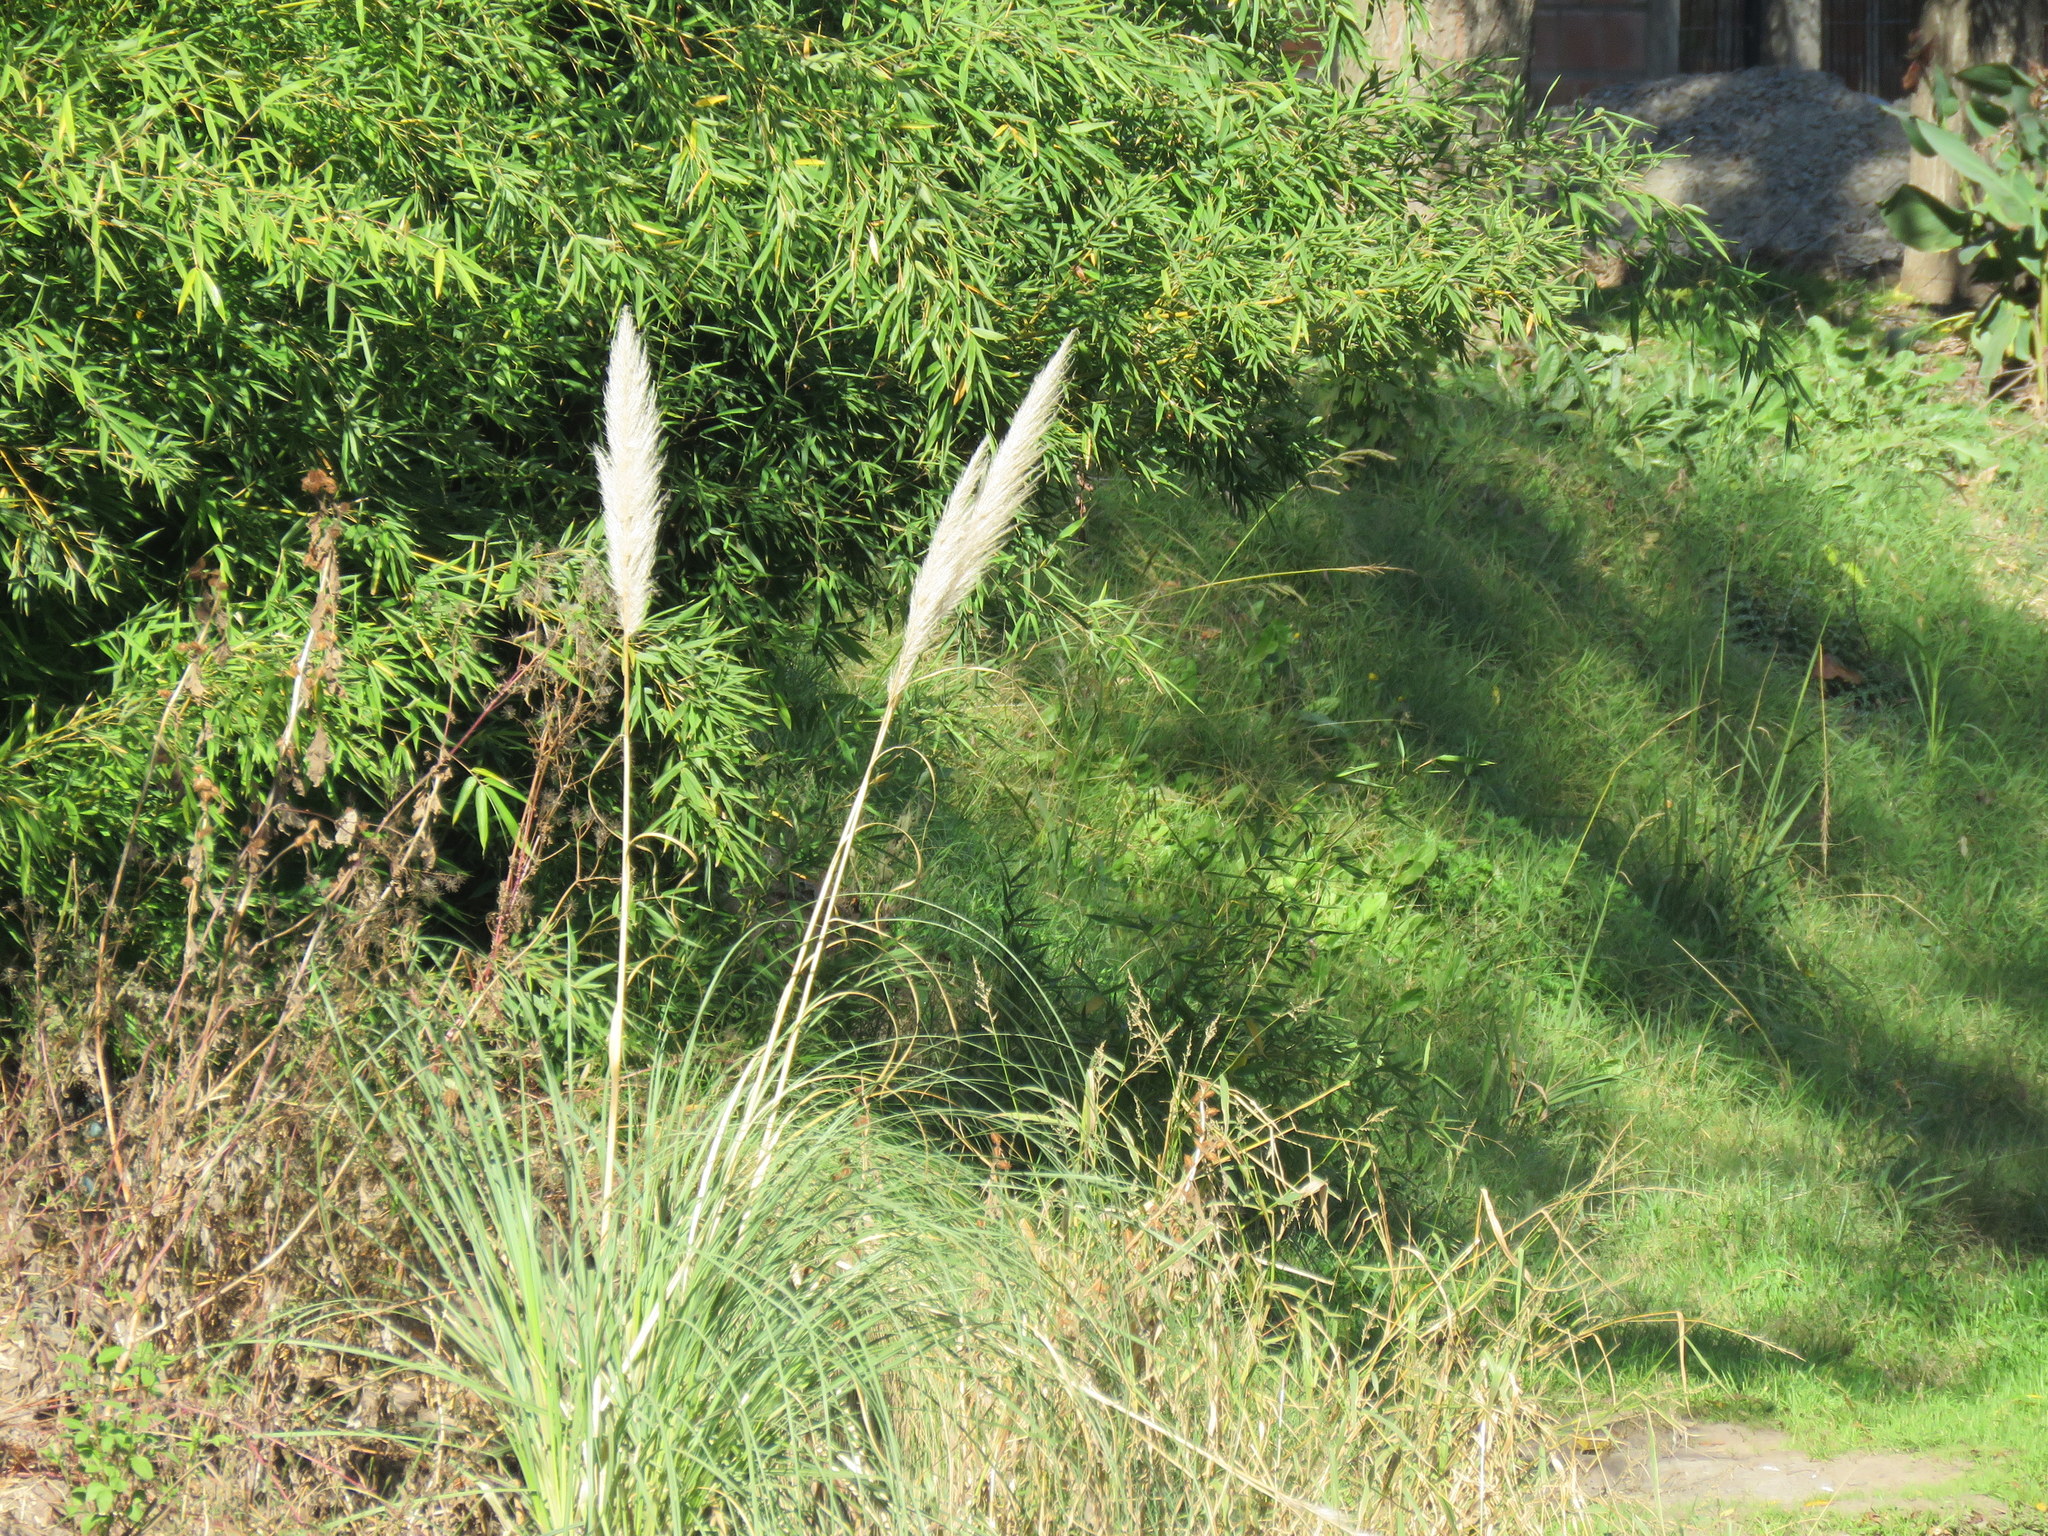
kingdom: Plantae
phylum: Tracheophyta
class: Liliopsida
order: Poales
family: Poaceae
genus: Cortaderia
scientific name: Cortaderia selloana
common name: Uruguayan pampas grass
